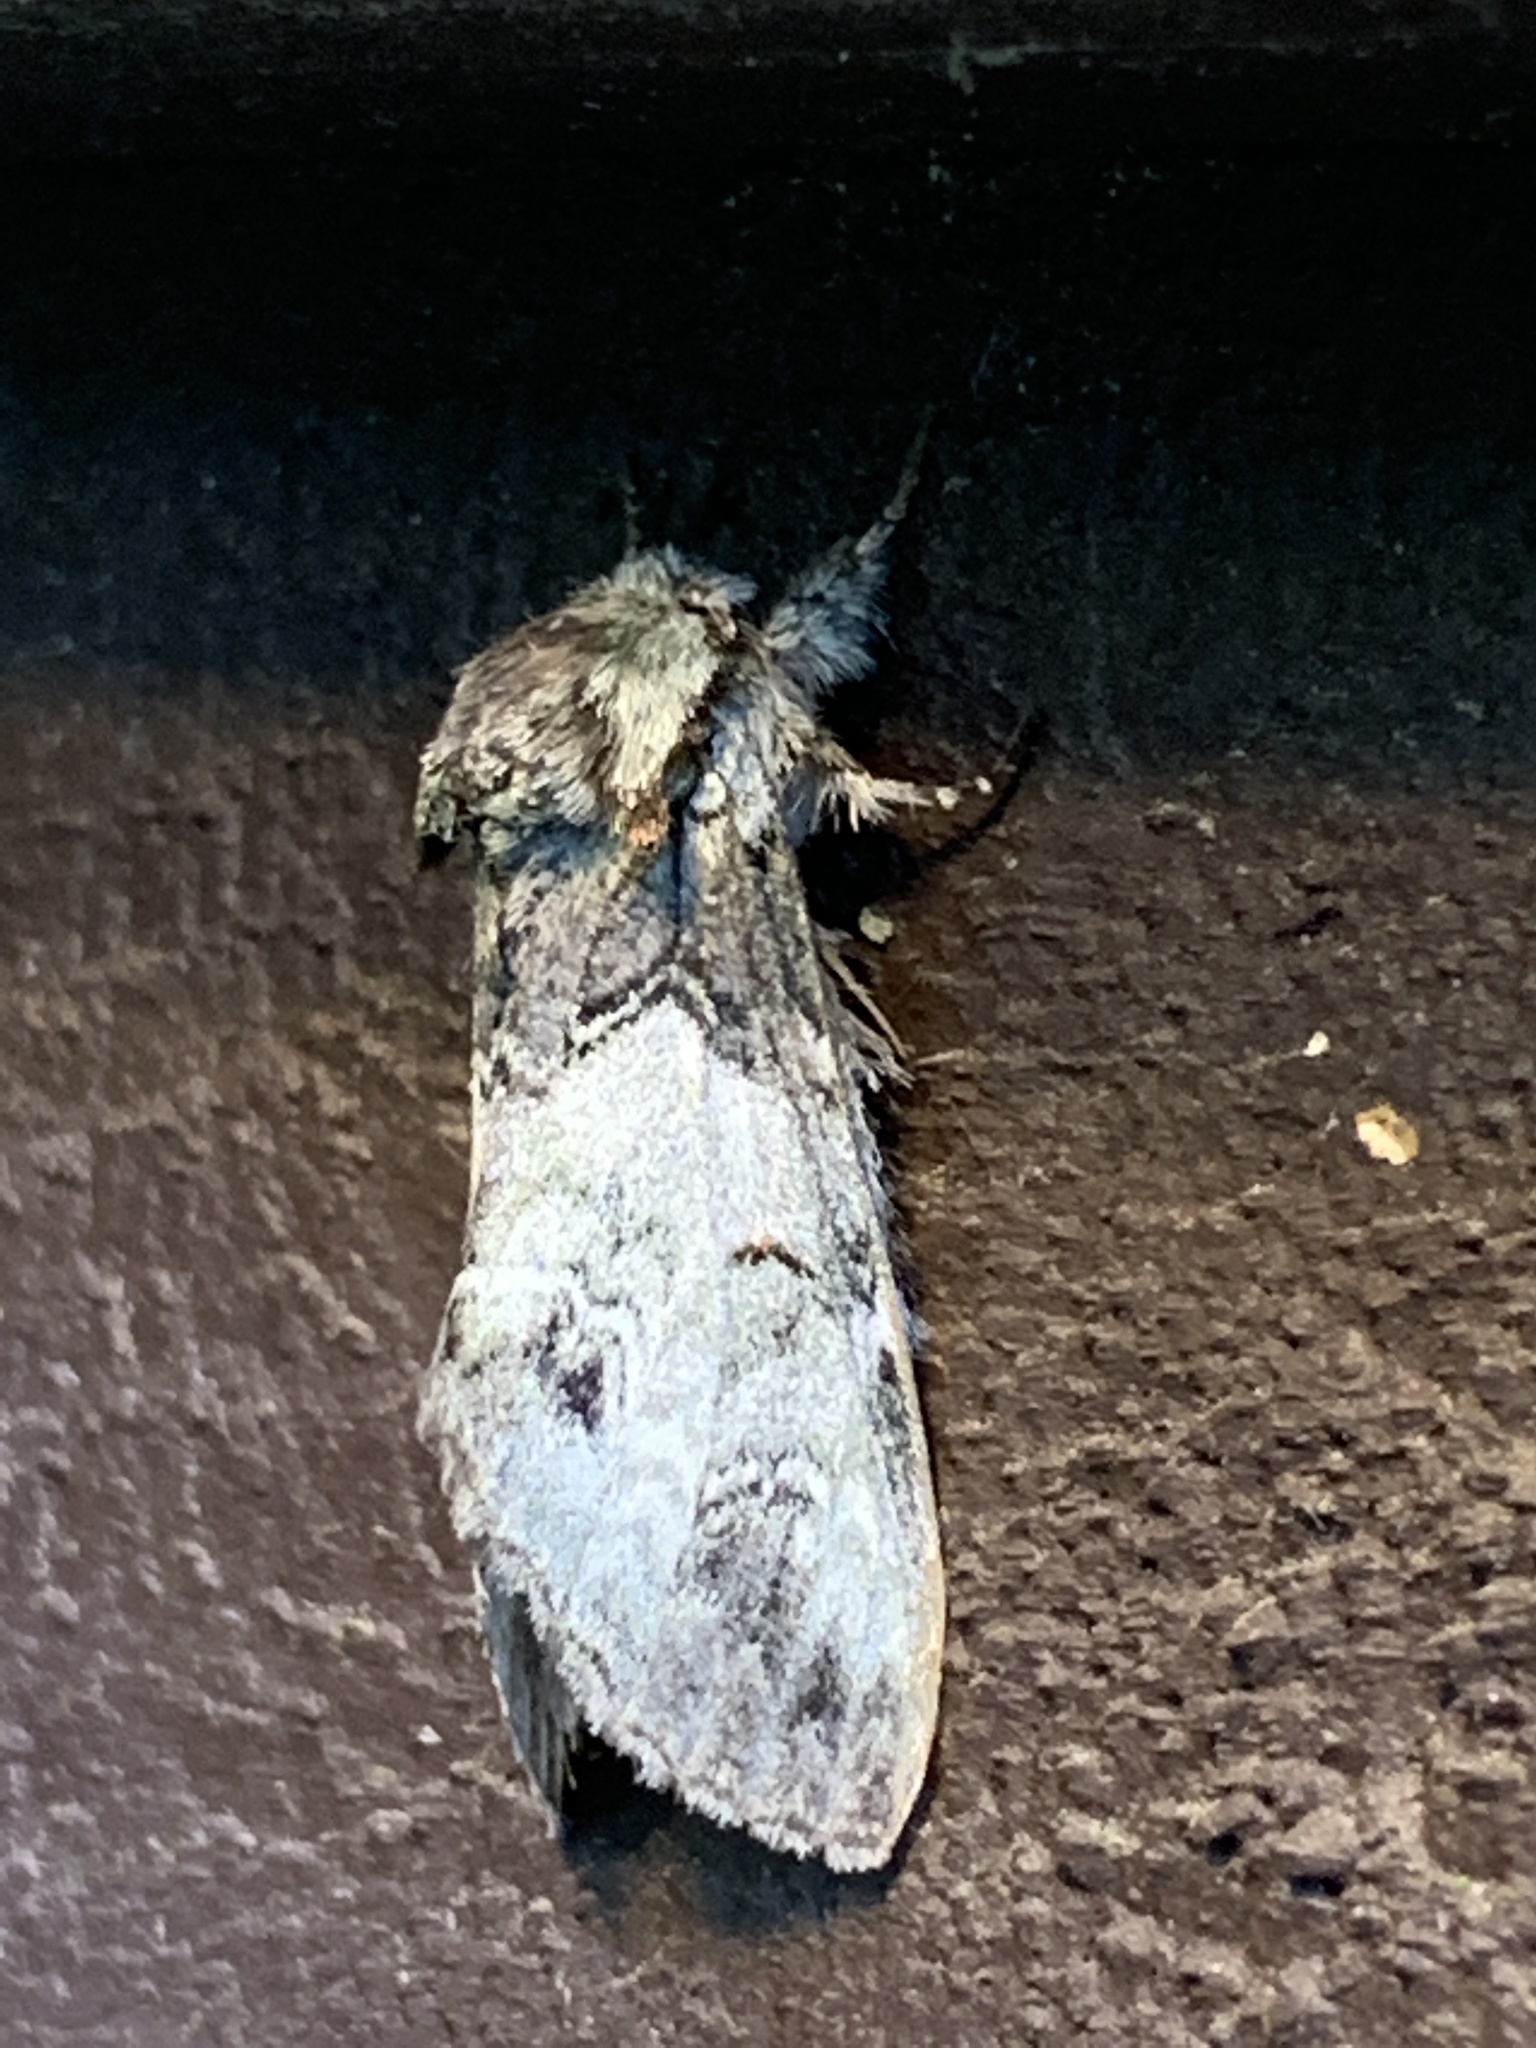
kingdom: Animalia
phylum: Arthropoda
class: Insecta
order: Lepidoptera
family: Notodontidae
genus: Macrurocampa
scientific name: Macrurocampa marthesia
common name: Mottled prominent
